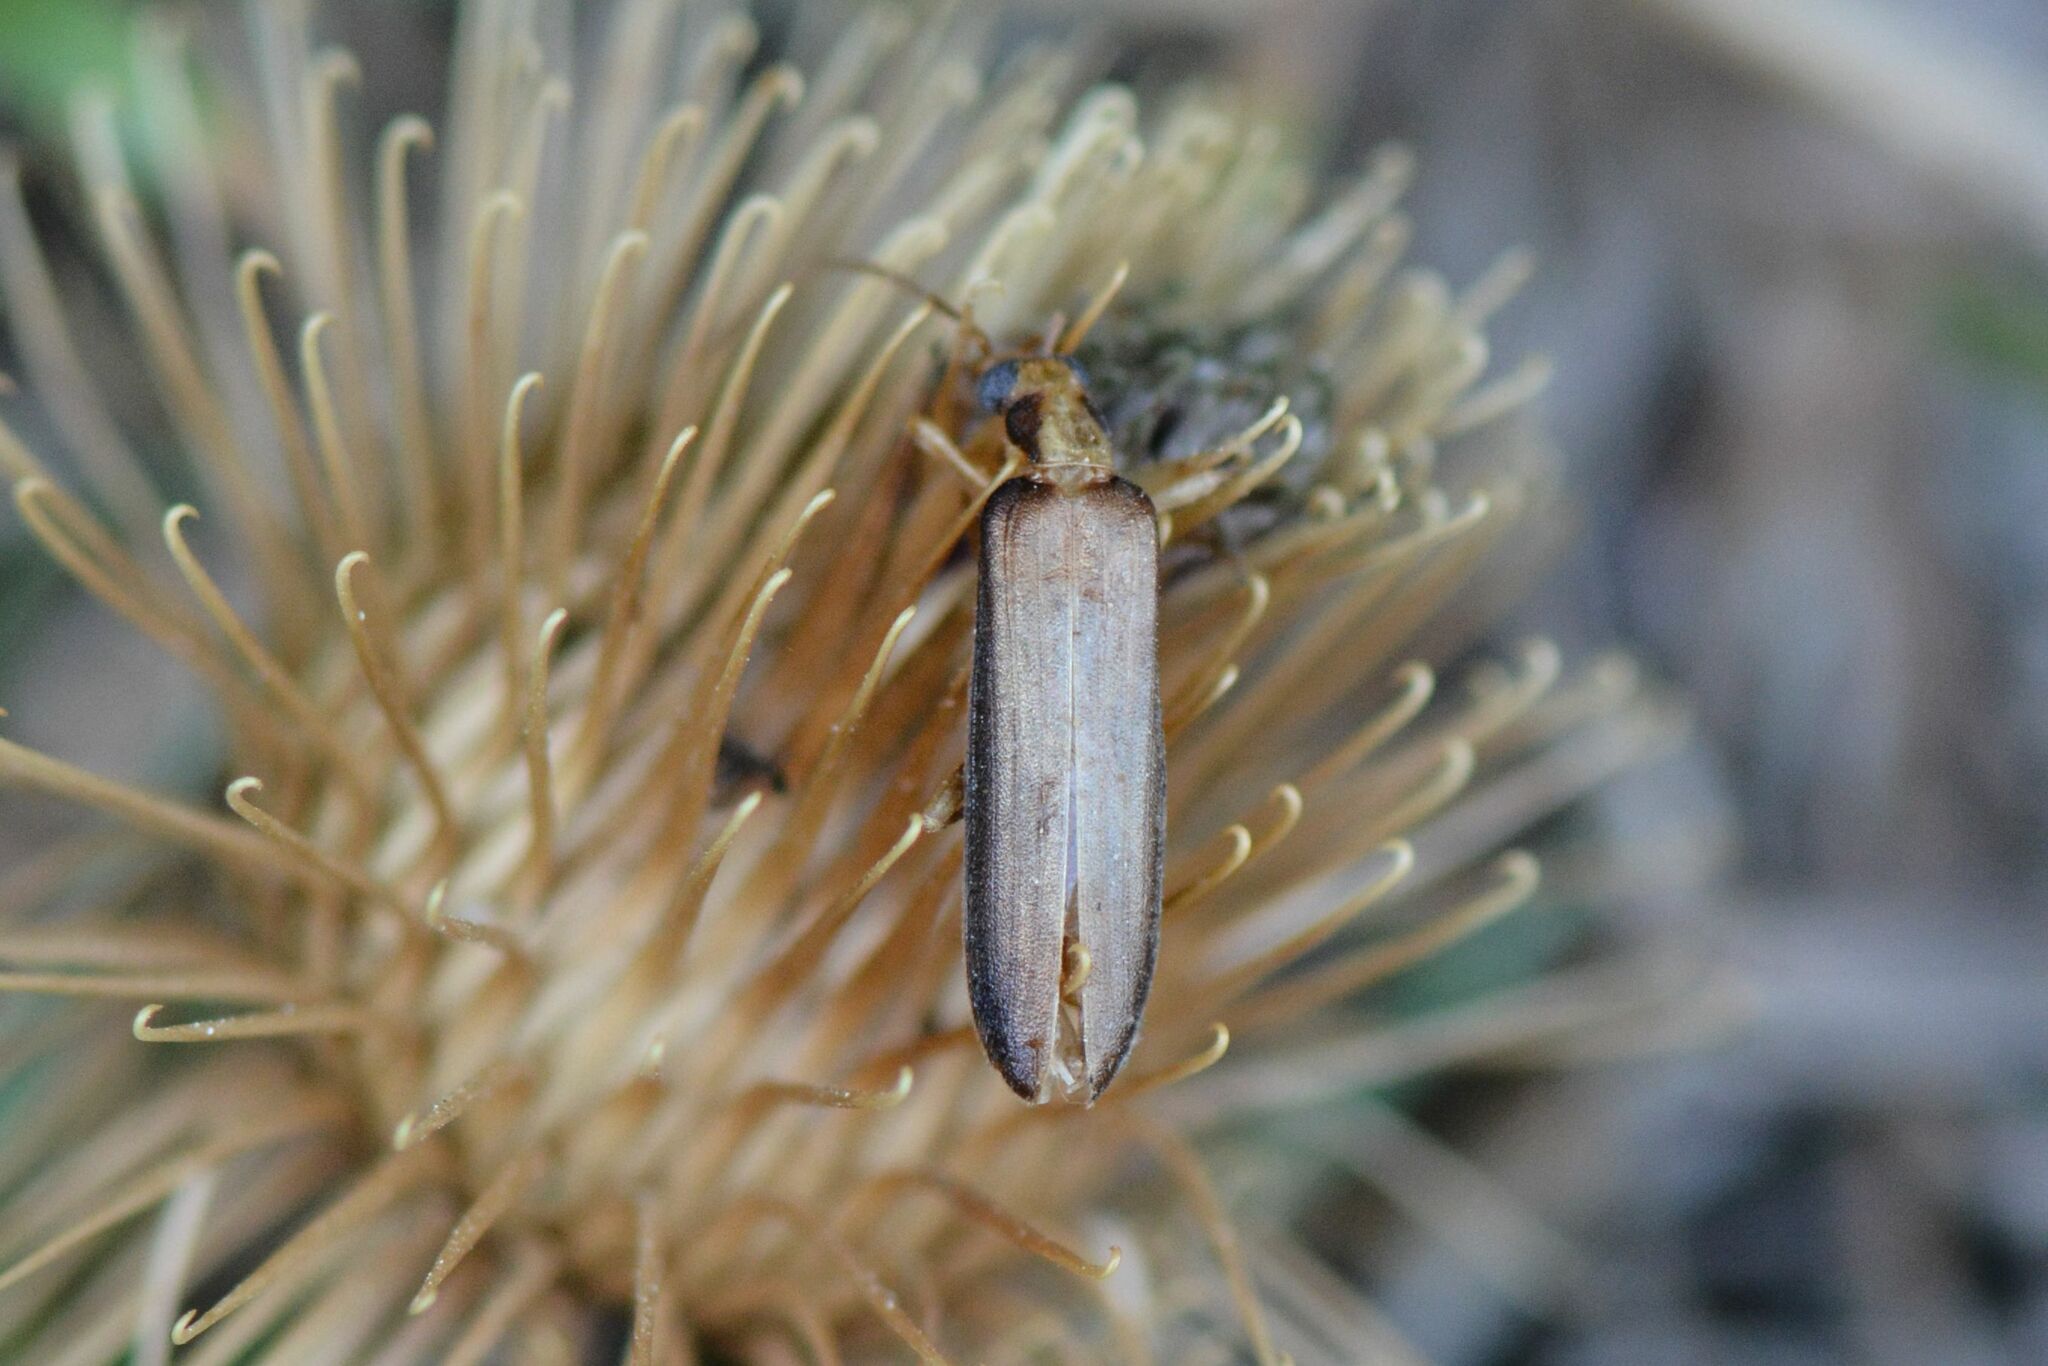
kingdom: Animalia
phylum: Arthropoda
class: Insecta
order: Coleoptera
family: Oedemeridae
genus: Nacerdes
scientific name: Nacerdes carniolica
